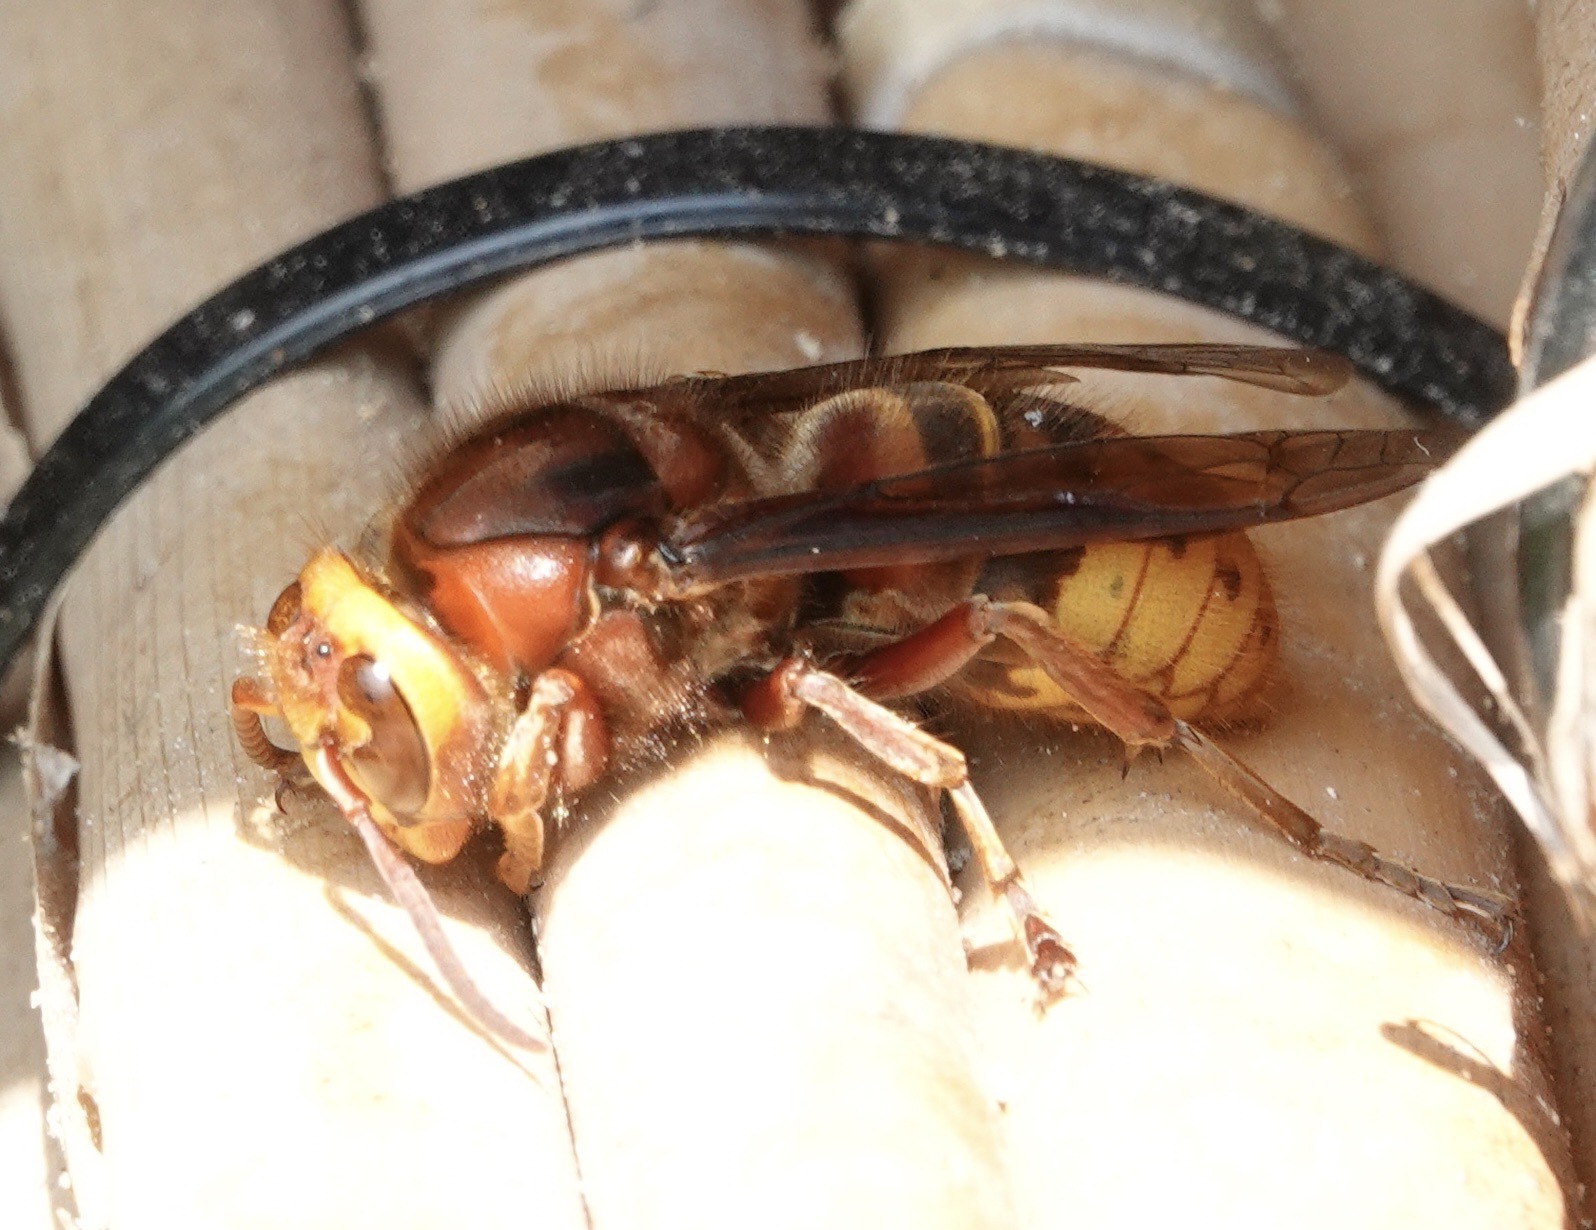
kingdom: Animalia
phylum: Arthropoda
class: Insecta
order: Hymenoptera
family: Vespidae
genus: Vespa
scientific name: Vespa crabro
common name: Hornet
